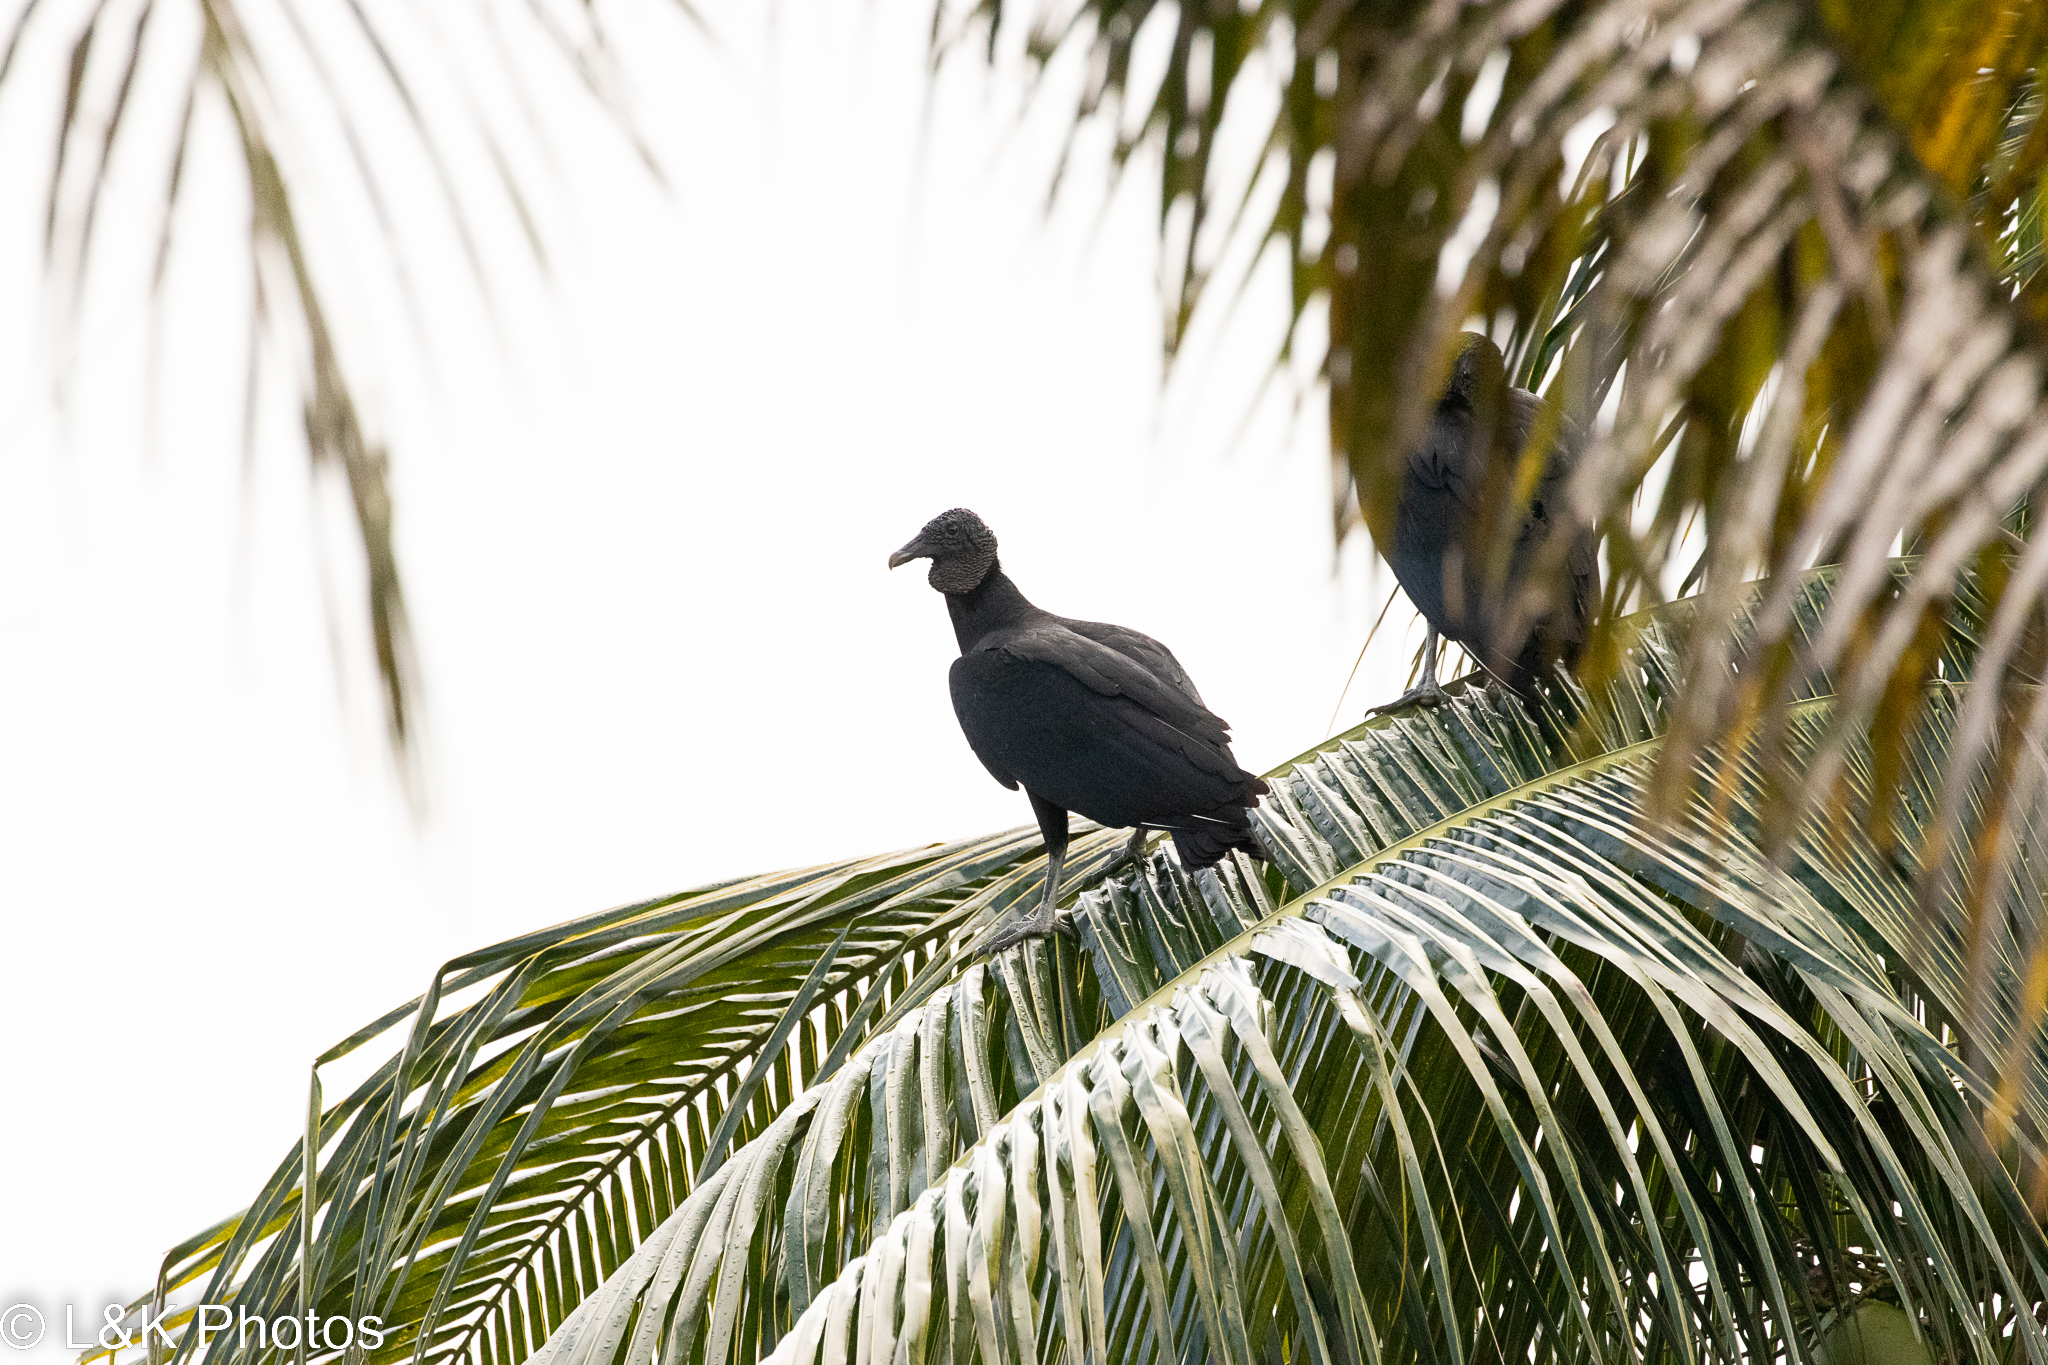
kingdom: Animalia
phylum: Chordata
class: Aves
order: Accipitriformes
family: Cathartidae
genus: Coragyps
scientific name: Coragyps atratus
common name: Black vulture
